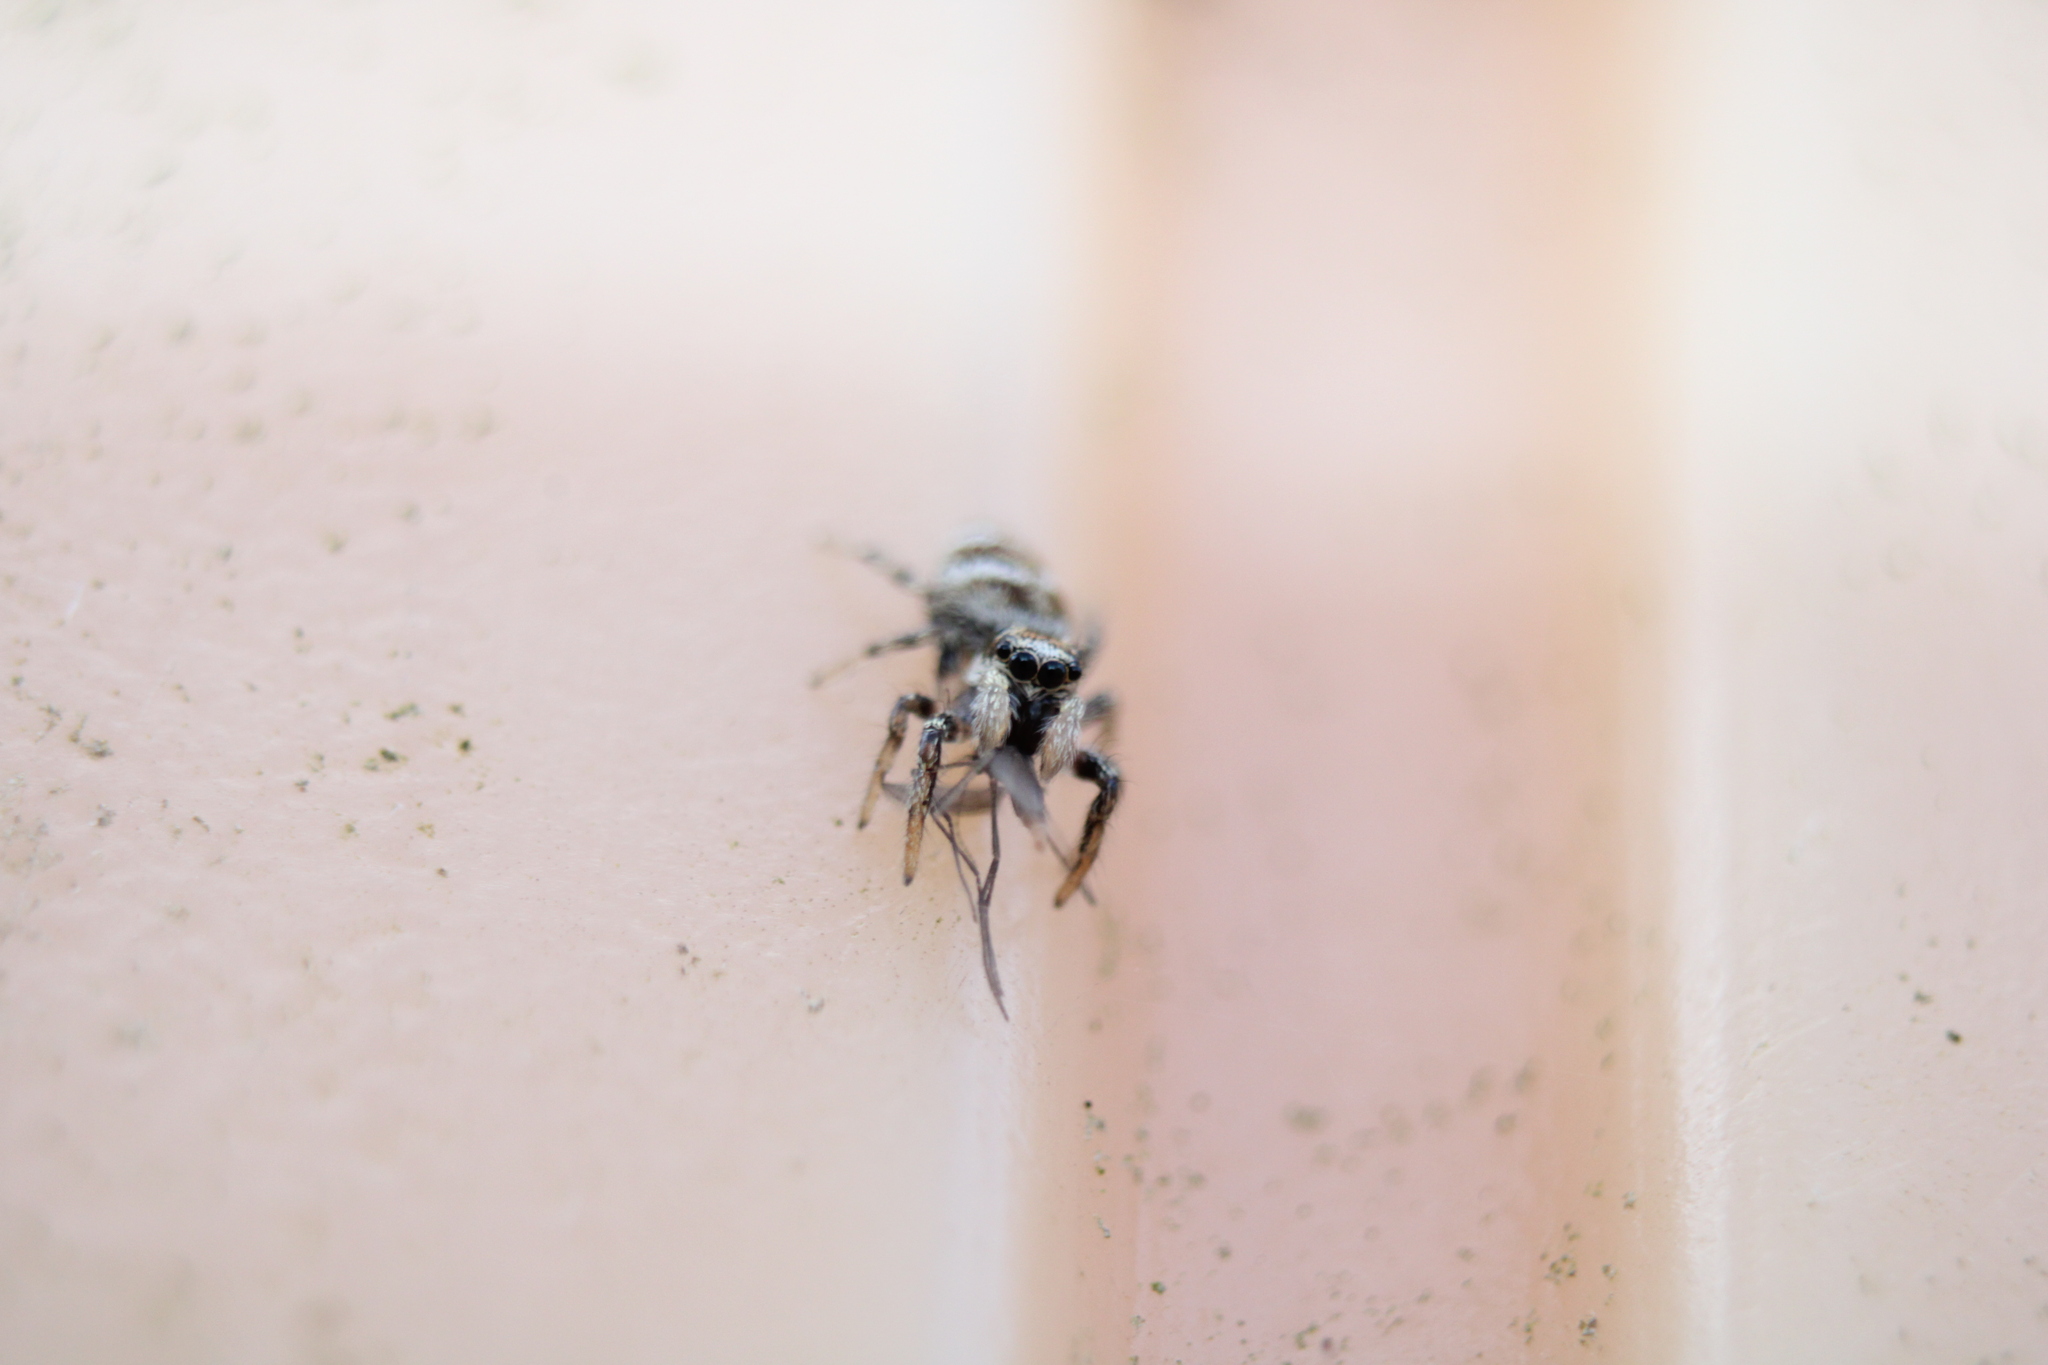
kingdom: Animalia
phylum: Arthropoda
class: Arachnida
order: Araneae
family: Salticidae
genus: Salticus
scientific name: Salticus scenicus
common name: Zebra jumper
